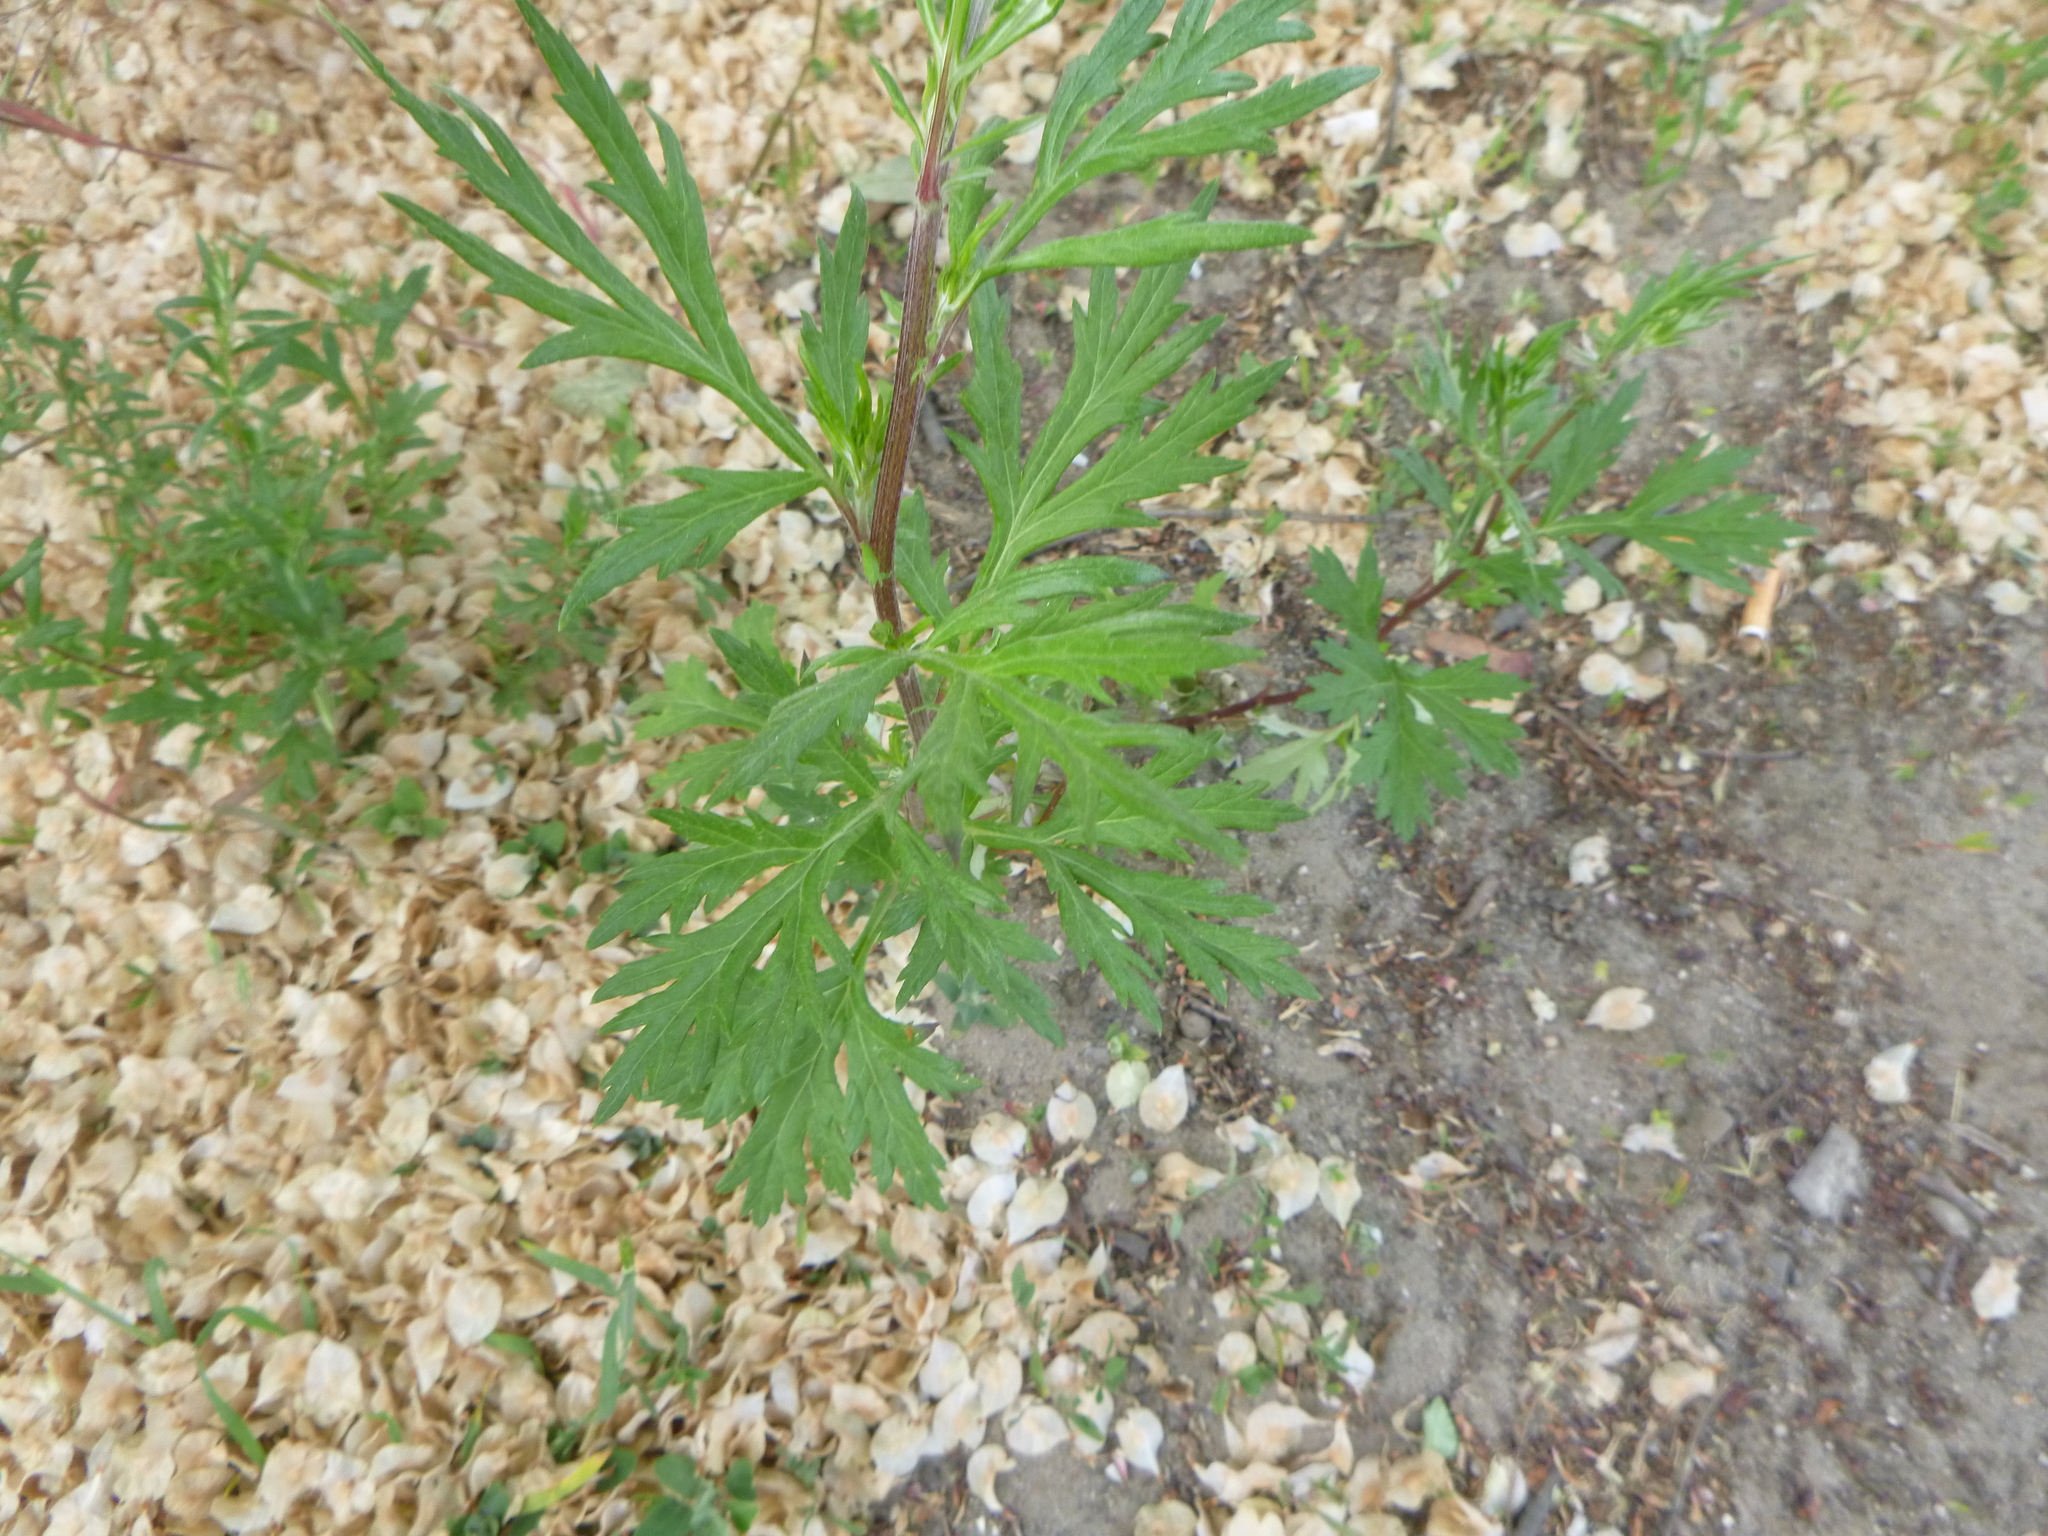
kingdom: Plantae
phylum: Tracheophyta
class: Magnoliopsida
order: Asterales
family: Asteraceae
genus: Artemisia
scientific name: Artemisia vulgaris
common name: Mugwort
